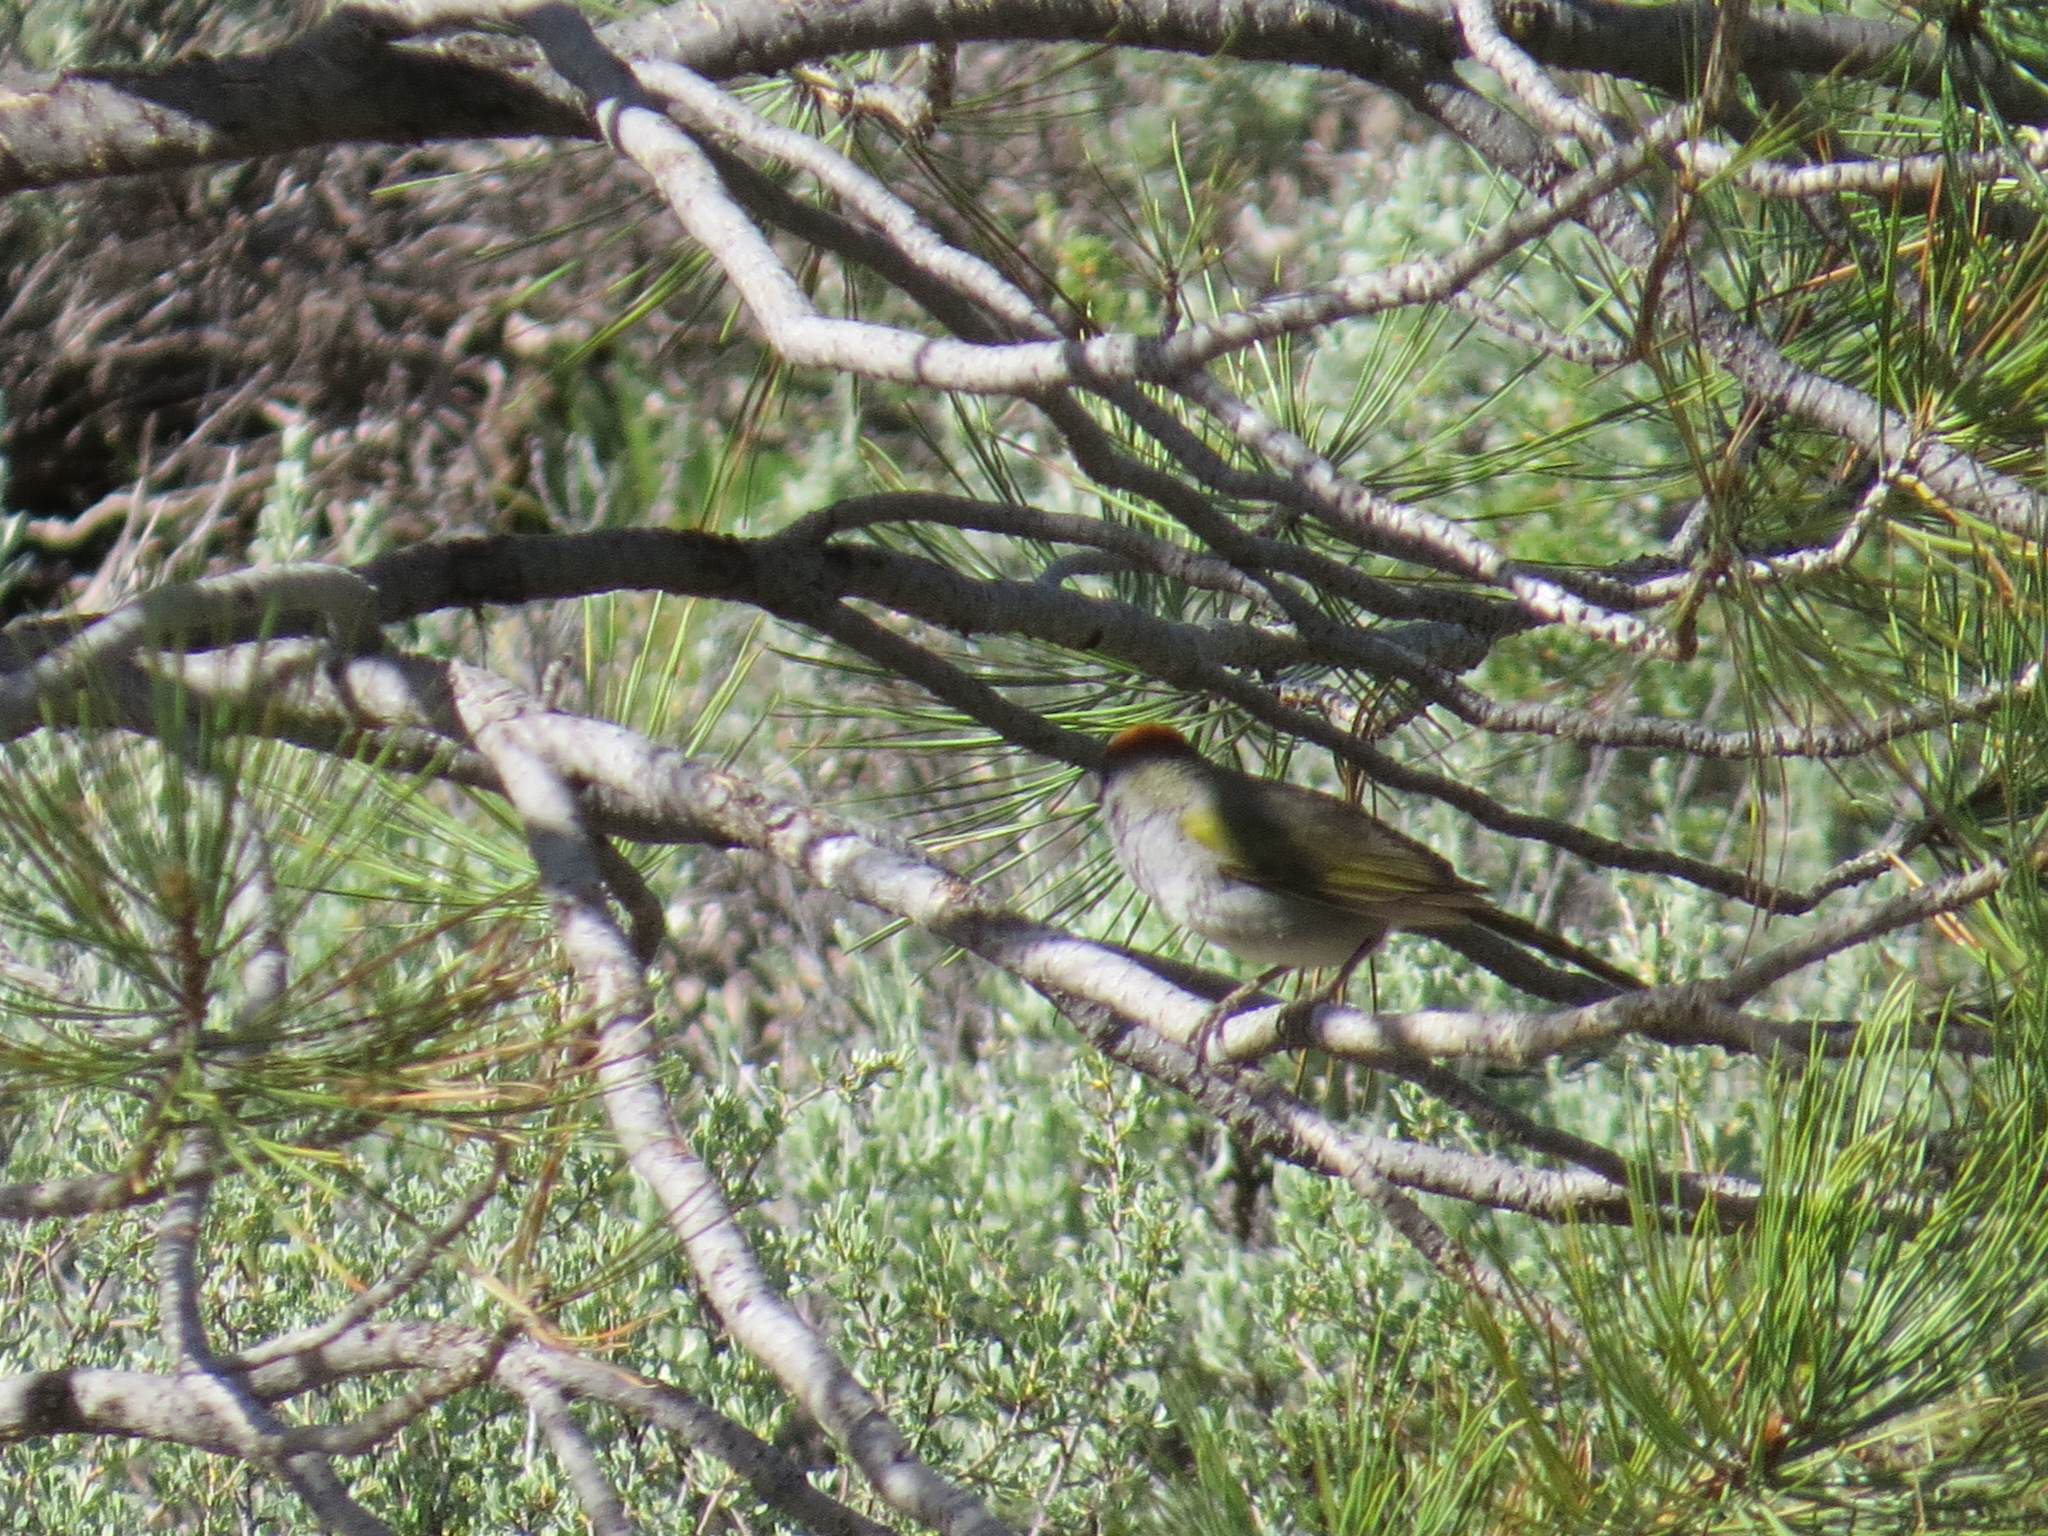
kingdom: Animalia
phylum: Chordata
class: Aves
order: Passeriformes
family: Passerellidae
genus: Pipilo
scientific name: Pipilo chlorurus
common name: Green-tailed towhee
